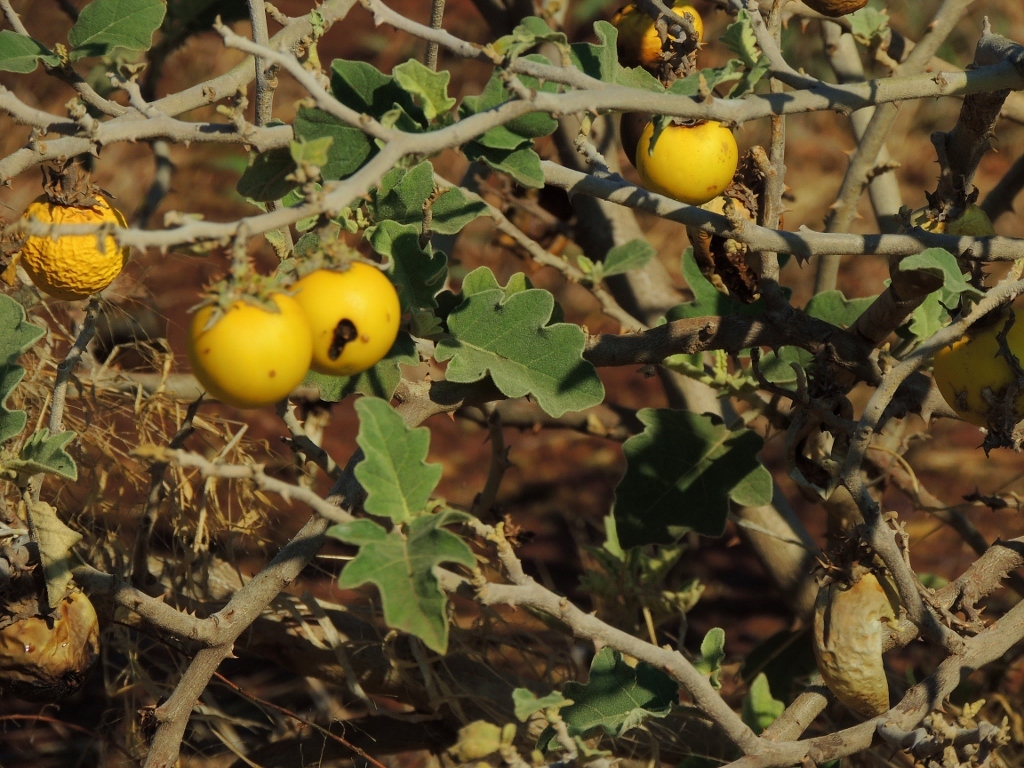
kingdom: Plantae
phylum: Tracheophyta
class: Magnoliopsida
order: Solanales
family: Solanaceae
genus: Solanum
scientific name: Solanum lichtensteinii
